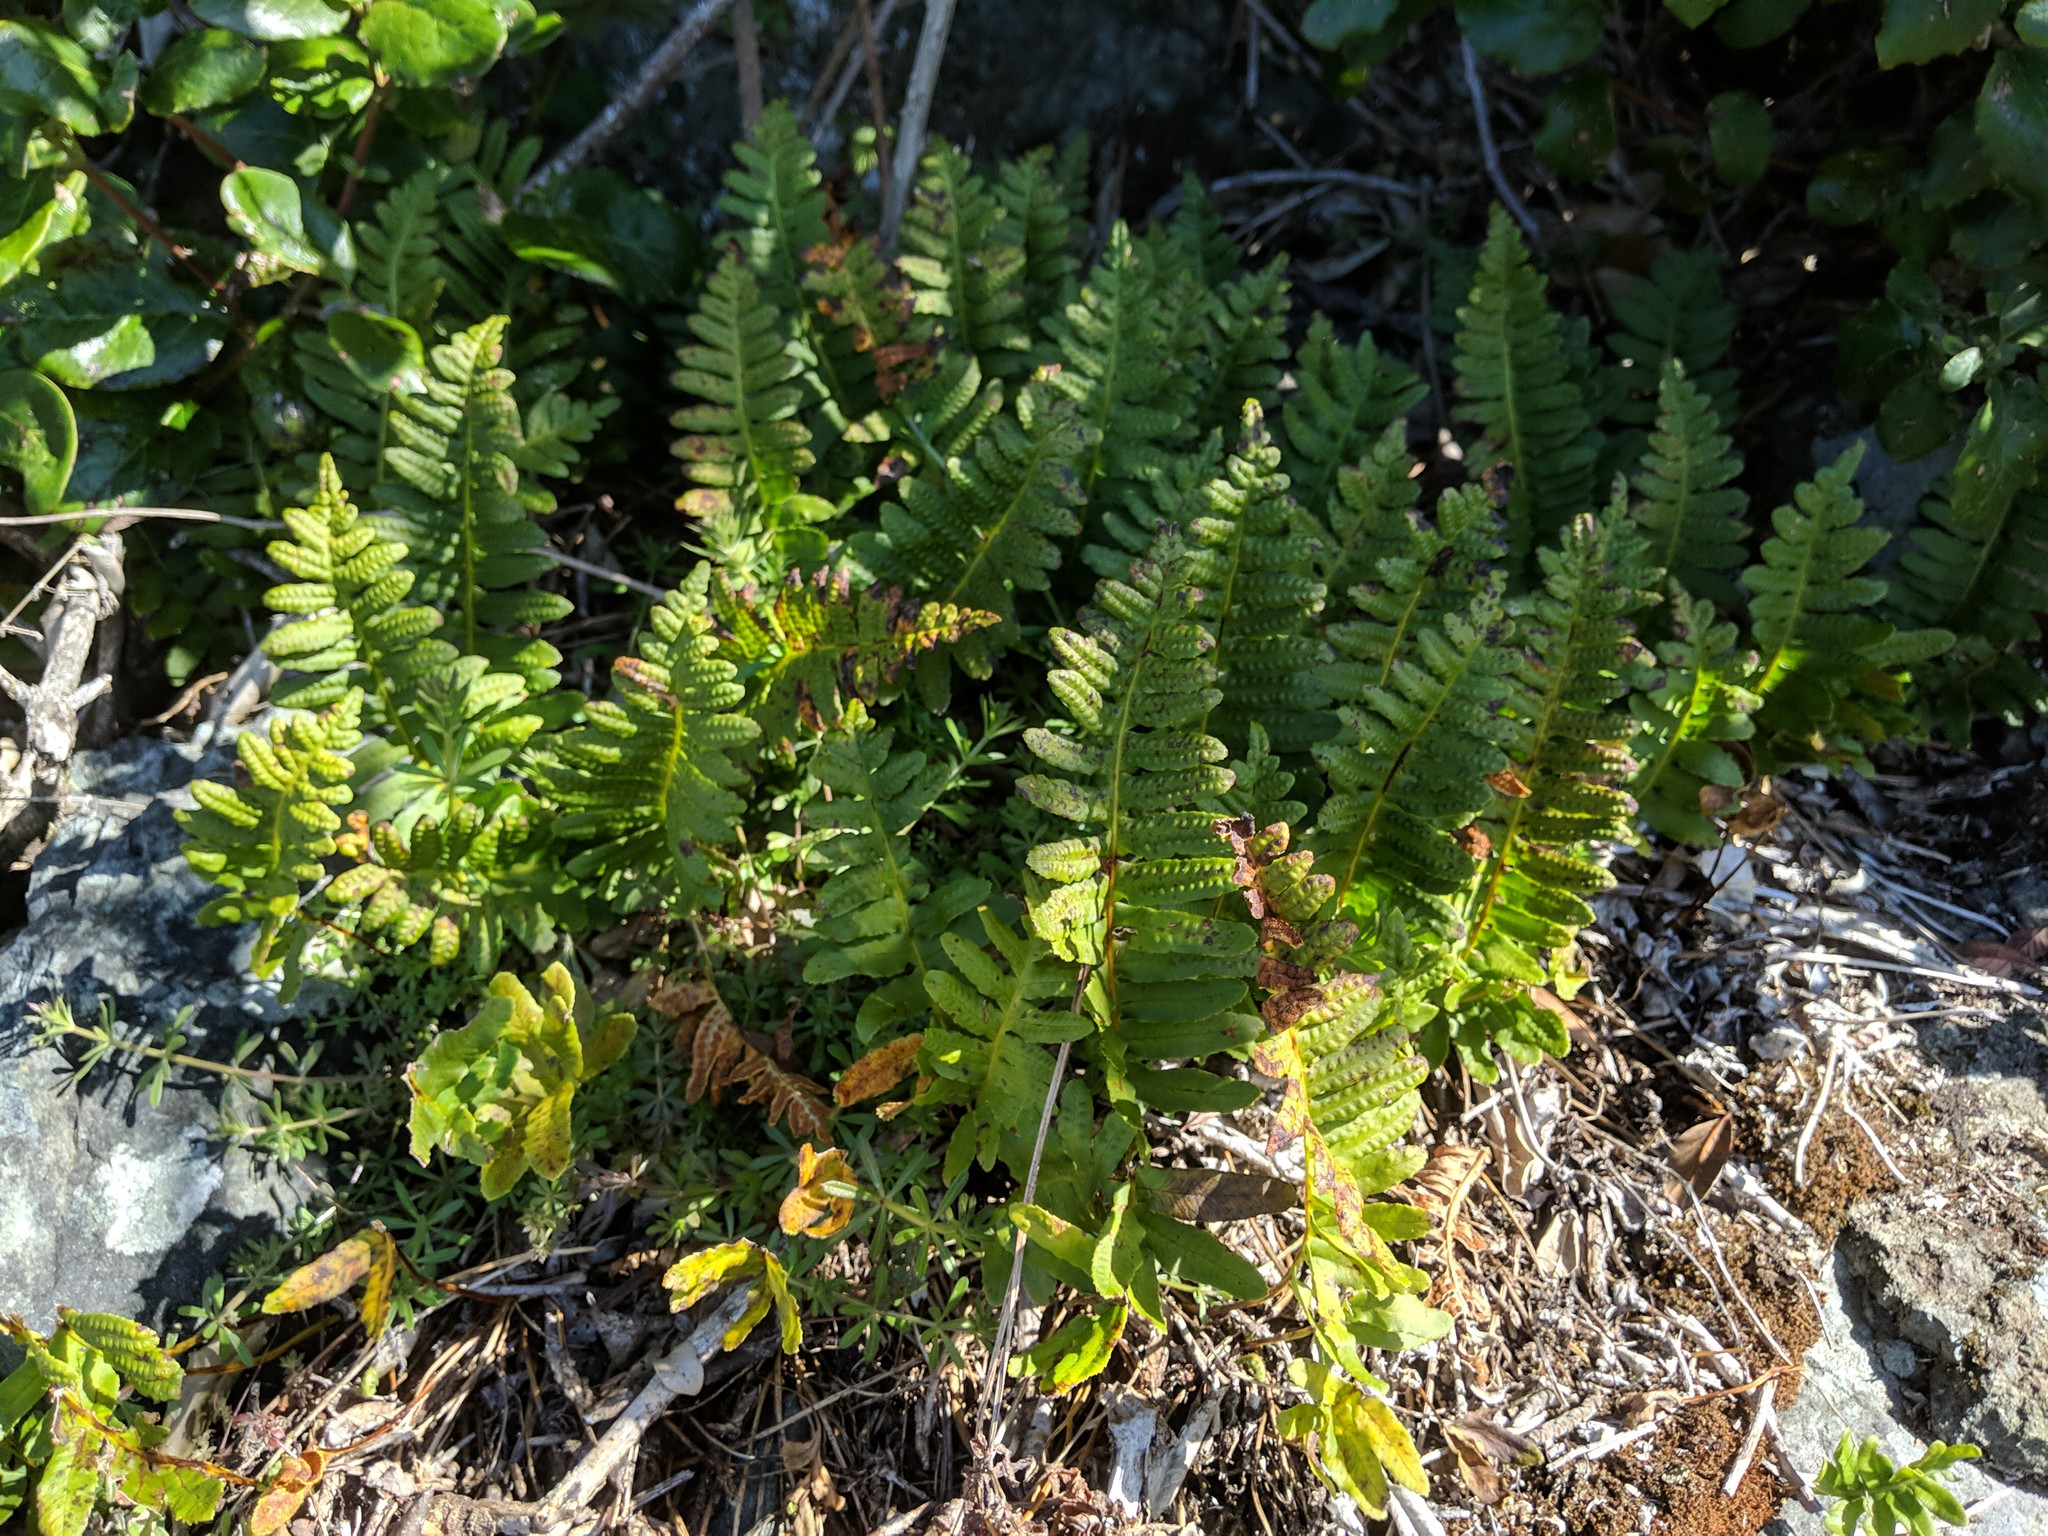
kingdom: Plantae
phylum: Tracheophyta
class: Polypodiopsida
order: Polypodiales
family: Polypodiaceae
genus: Polypodium
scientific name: Polypodium calirhiza
